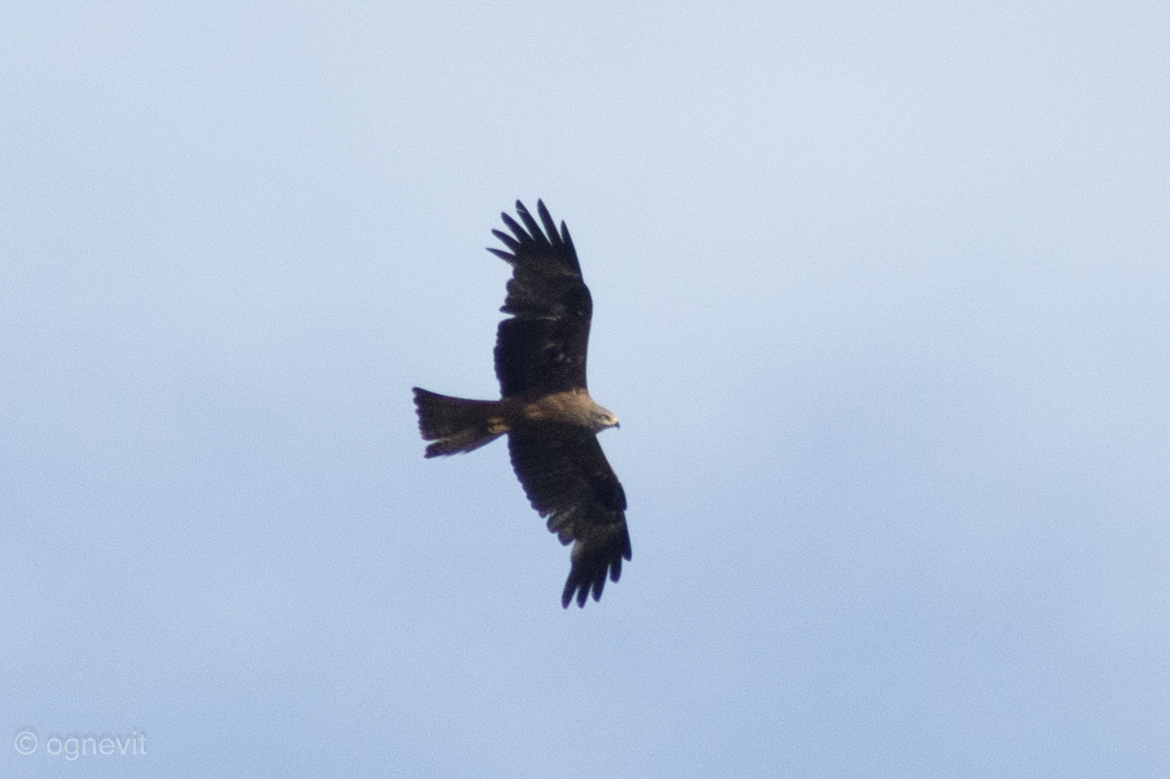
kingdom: Animalia
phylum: Chordata
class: Aves
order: Accipitriformes
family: Accipitridae
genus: Milvus
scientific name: Milvus migrans
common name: Black kite
